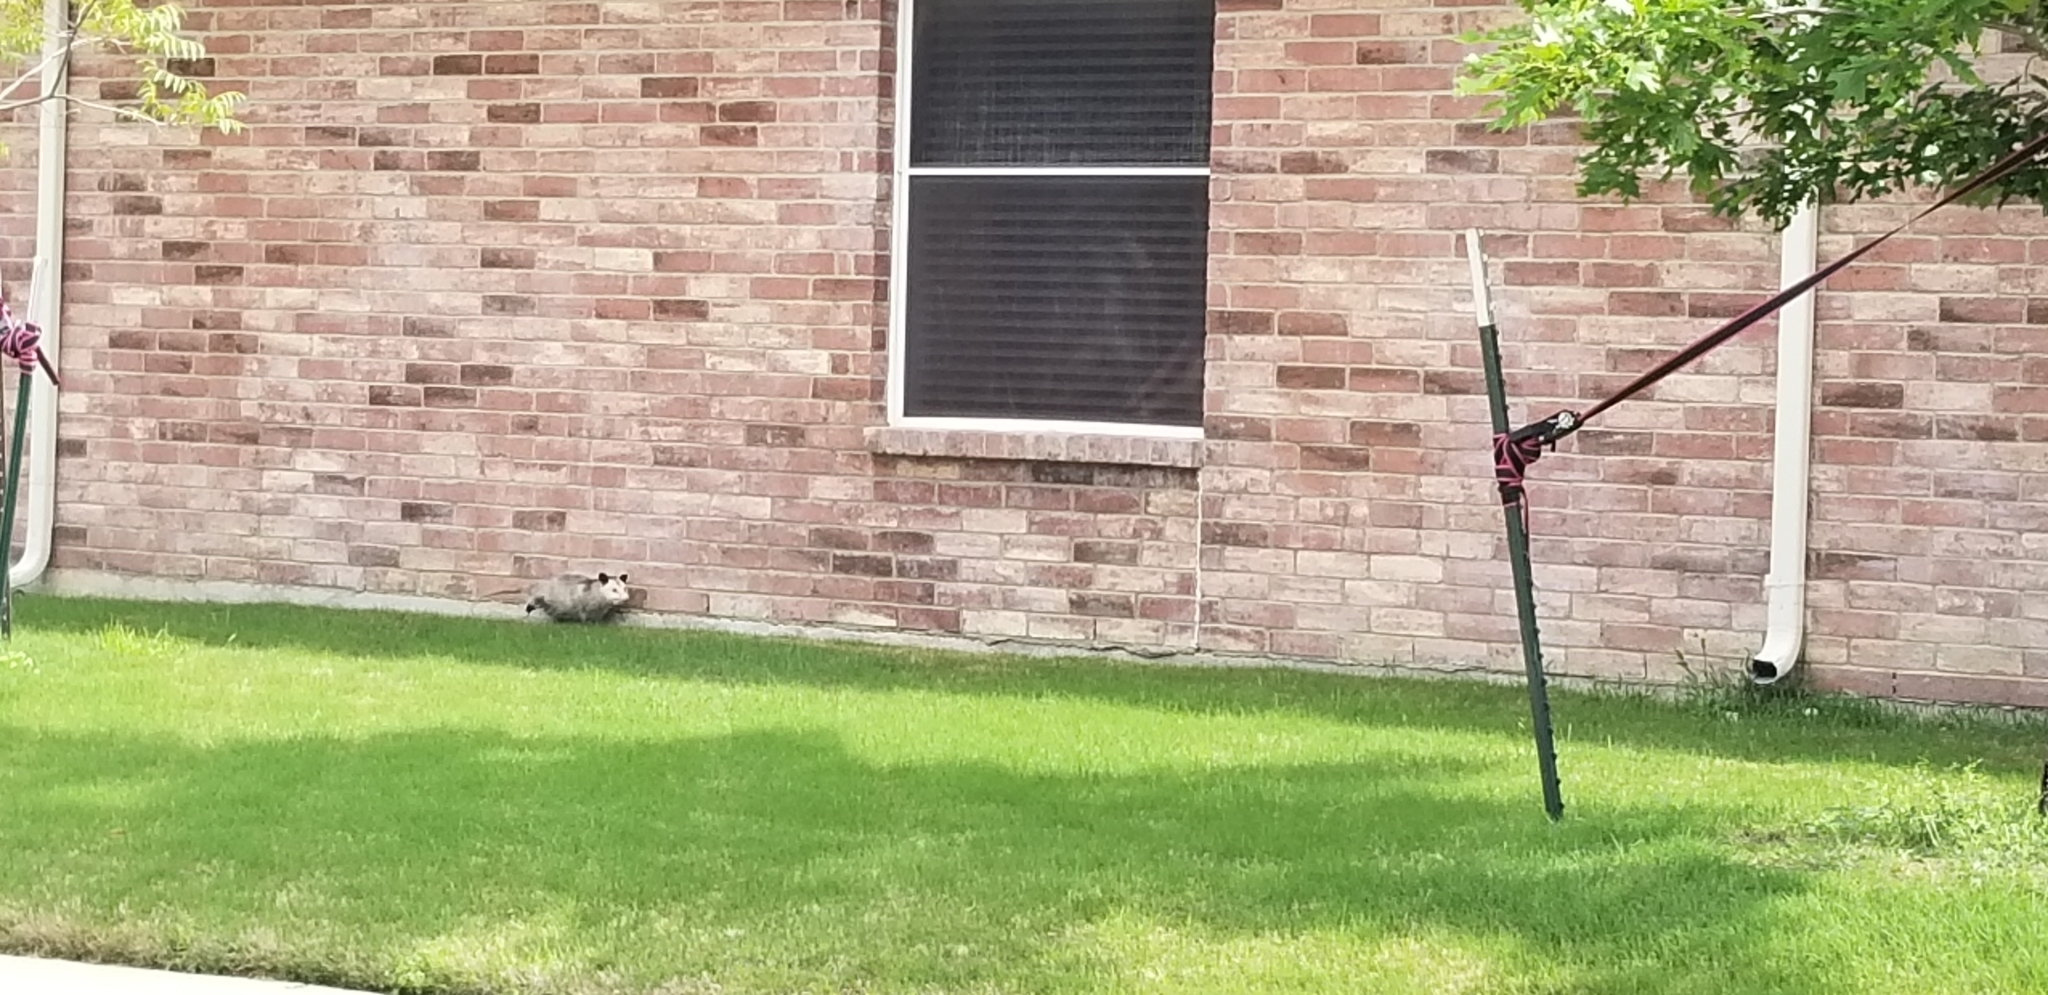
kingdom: Animalia
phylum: Chordata
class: Mammalia
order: Didelphimorphia
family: Didelphidae
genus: Didelphis
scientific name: Didelphis virginiana
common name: Virginia opossum
